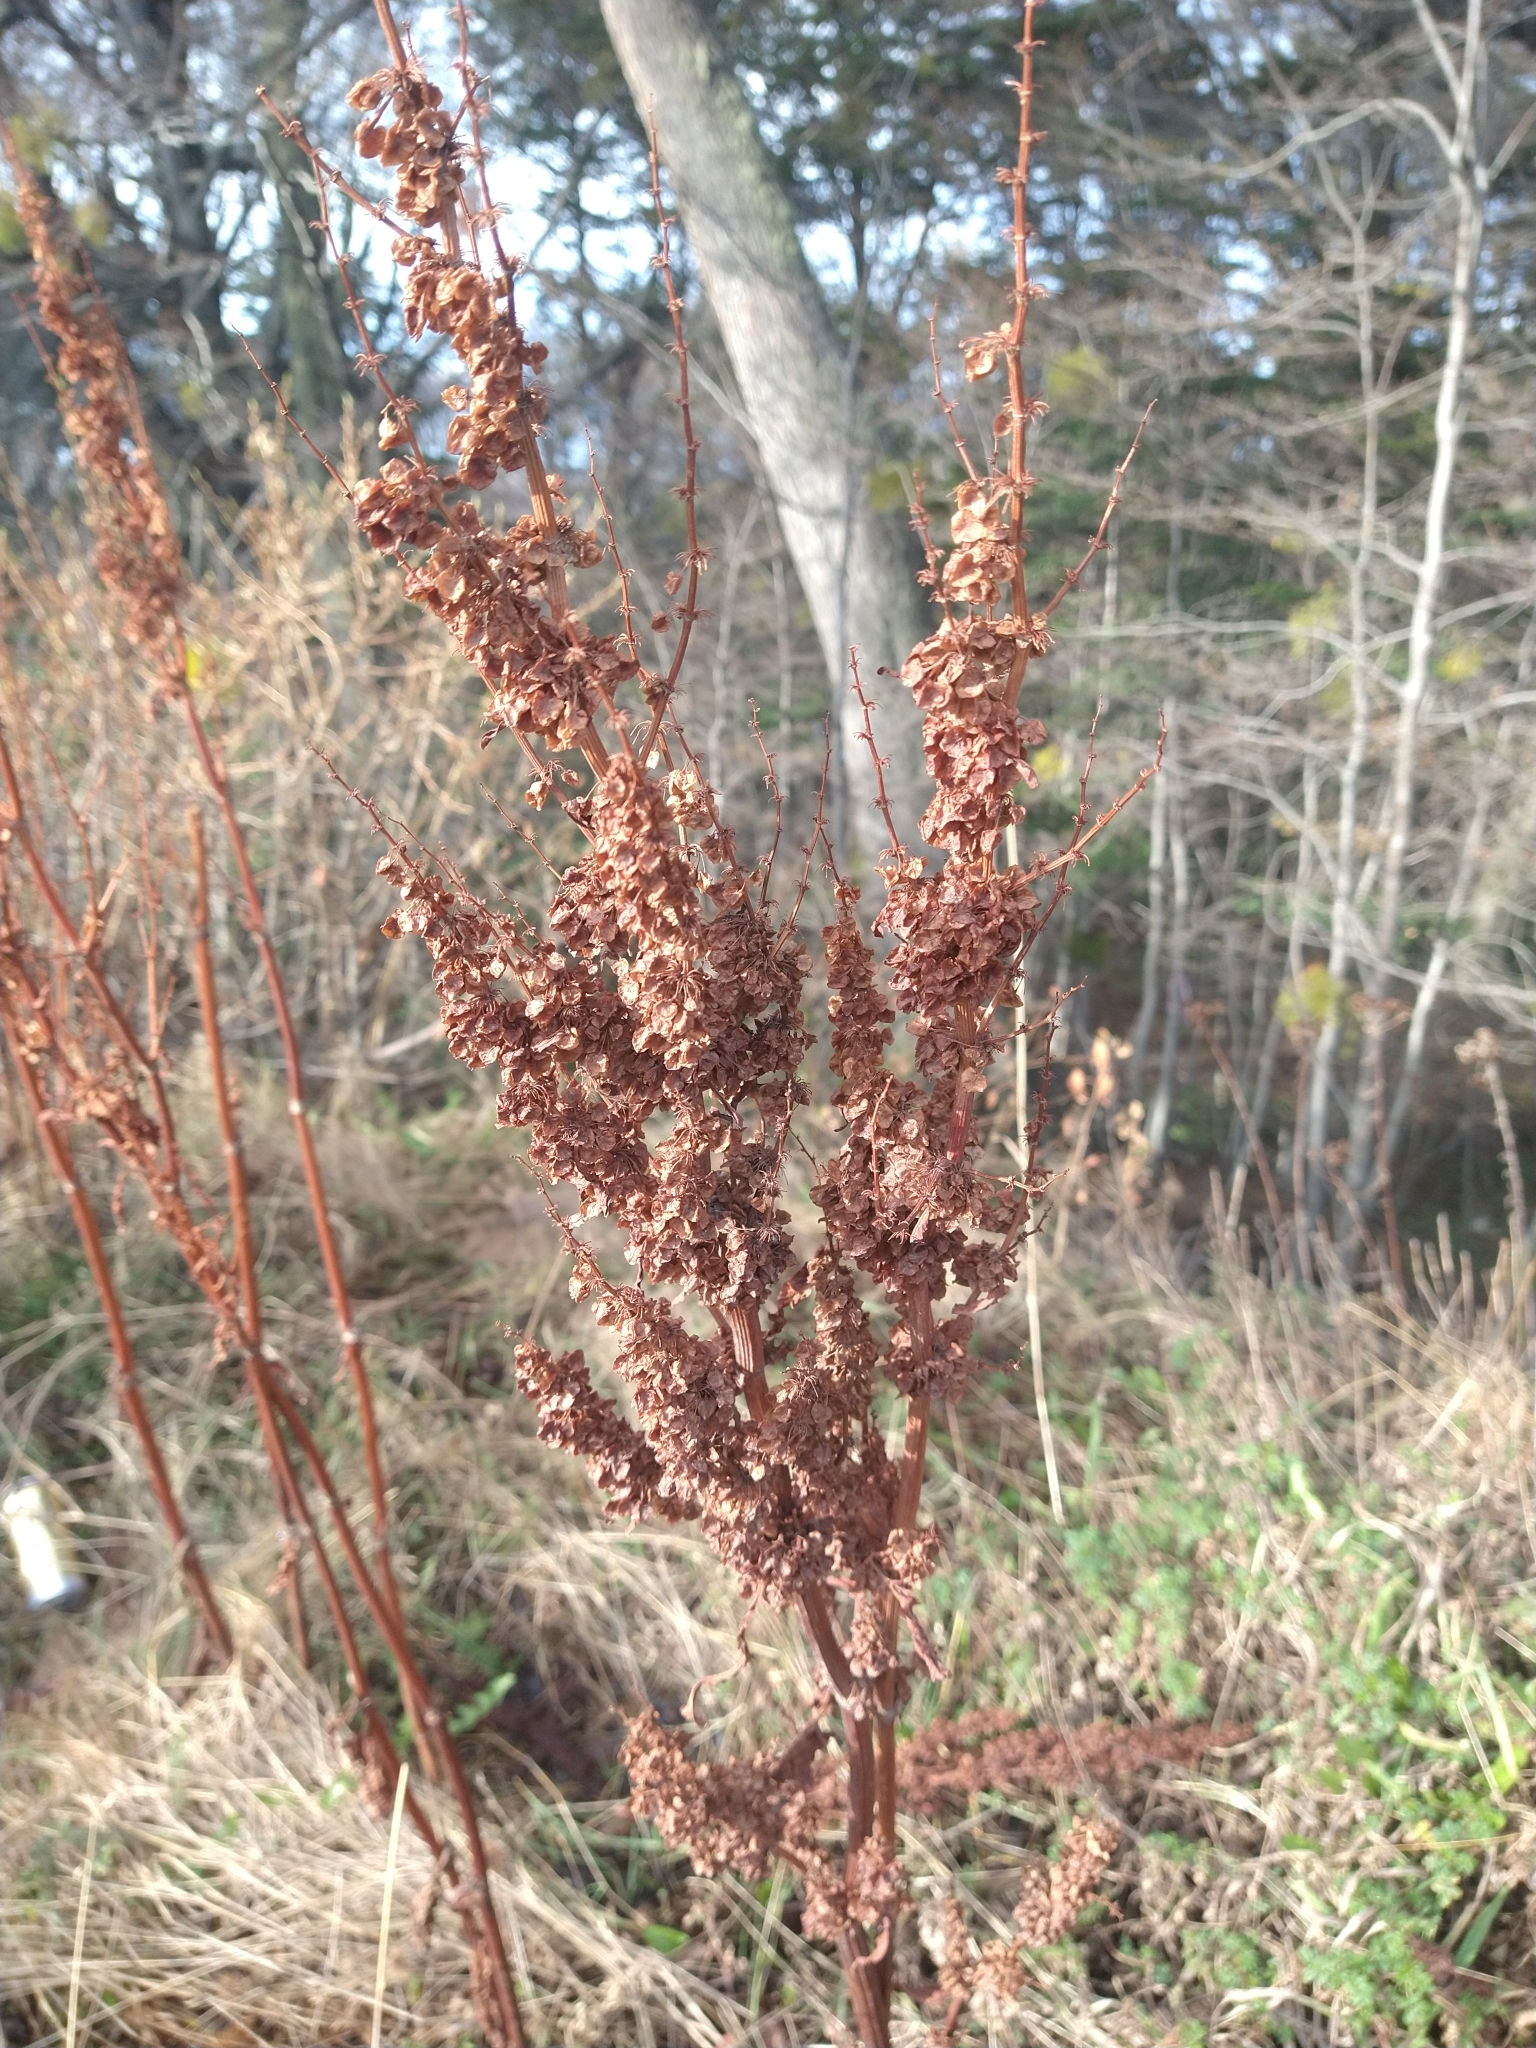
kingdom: Plantae
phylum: Tracheophyta
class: Magnoliopsida
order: Caryophyllales
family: Polygonaceae
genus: Rumex
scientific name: Rumex crispus
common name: Curled dock
